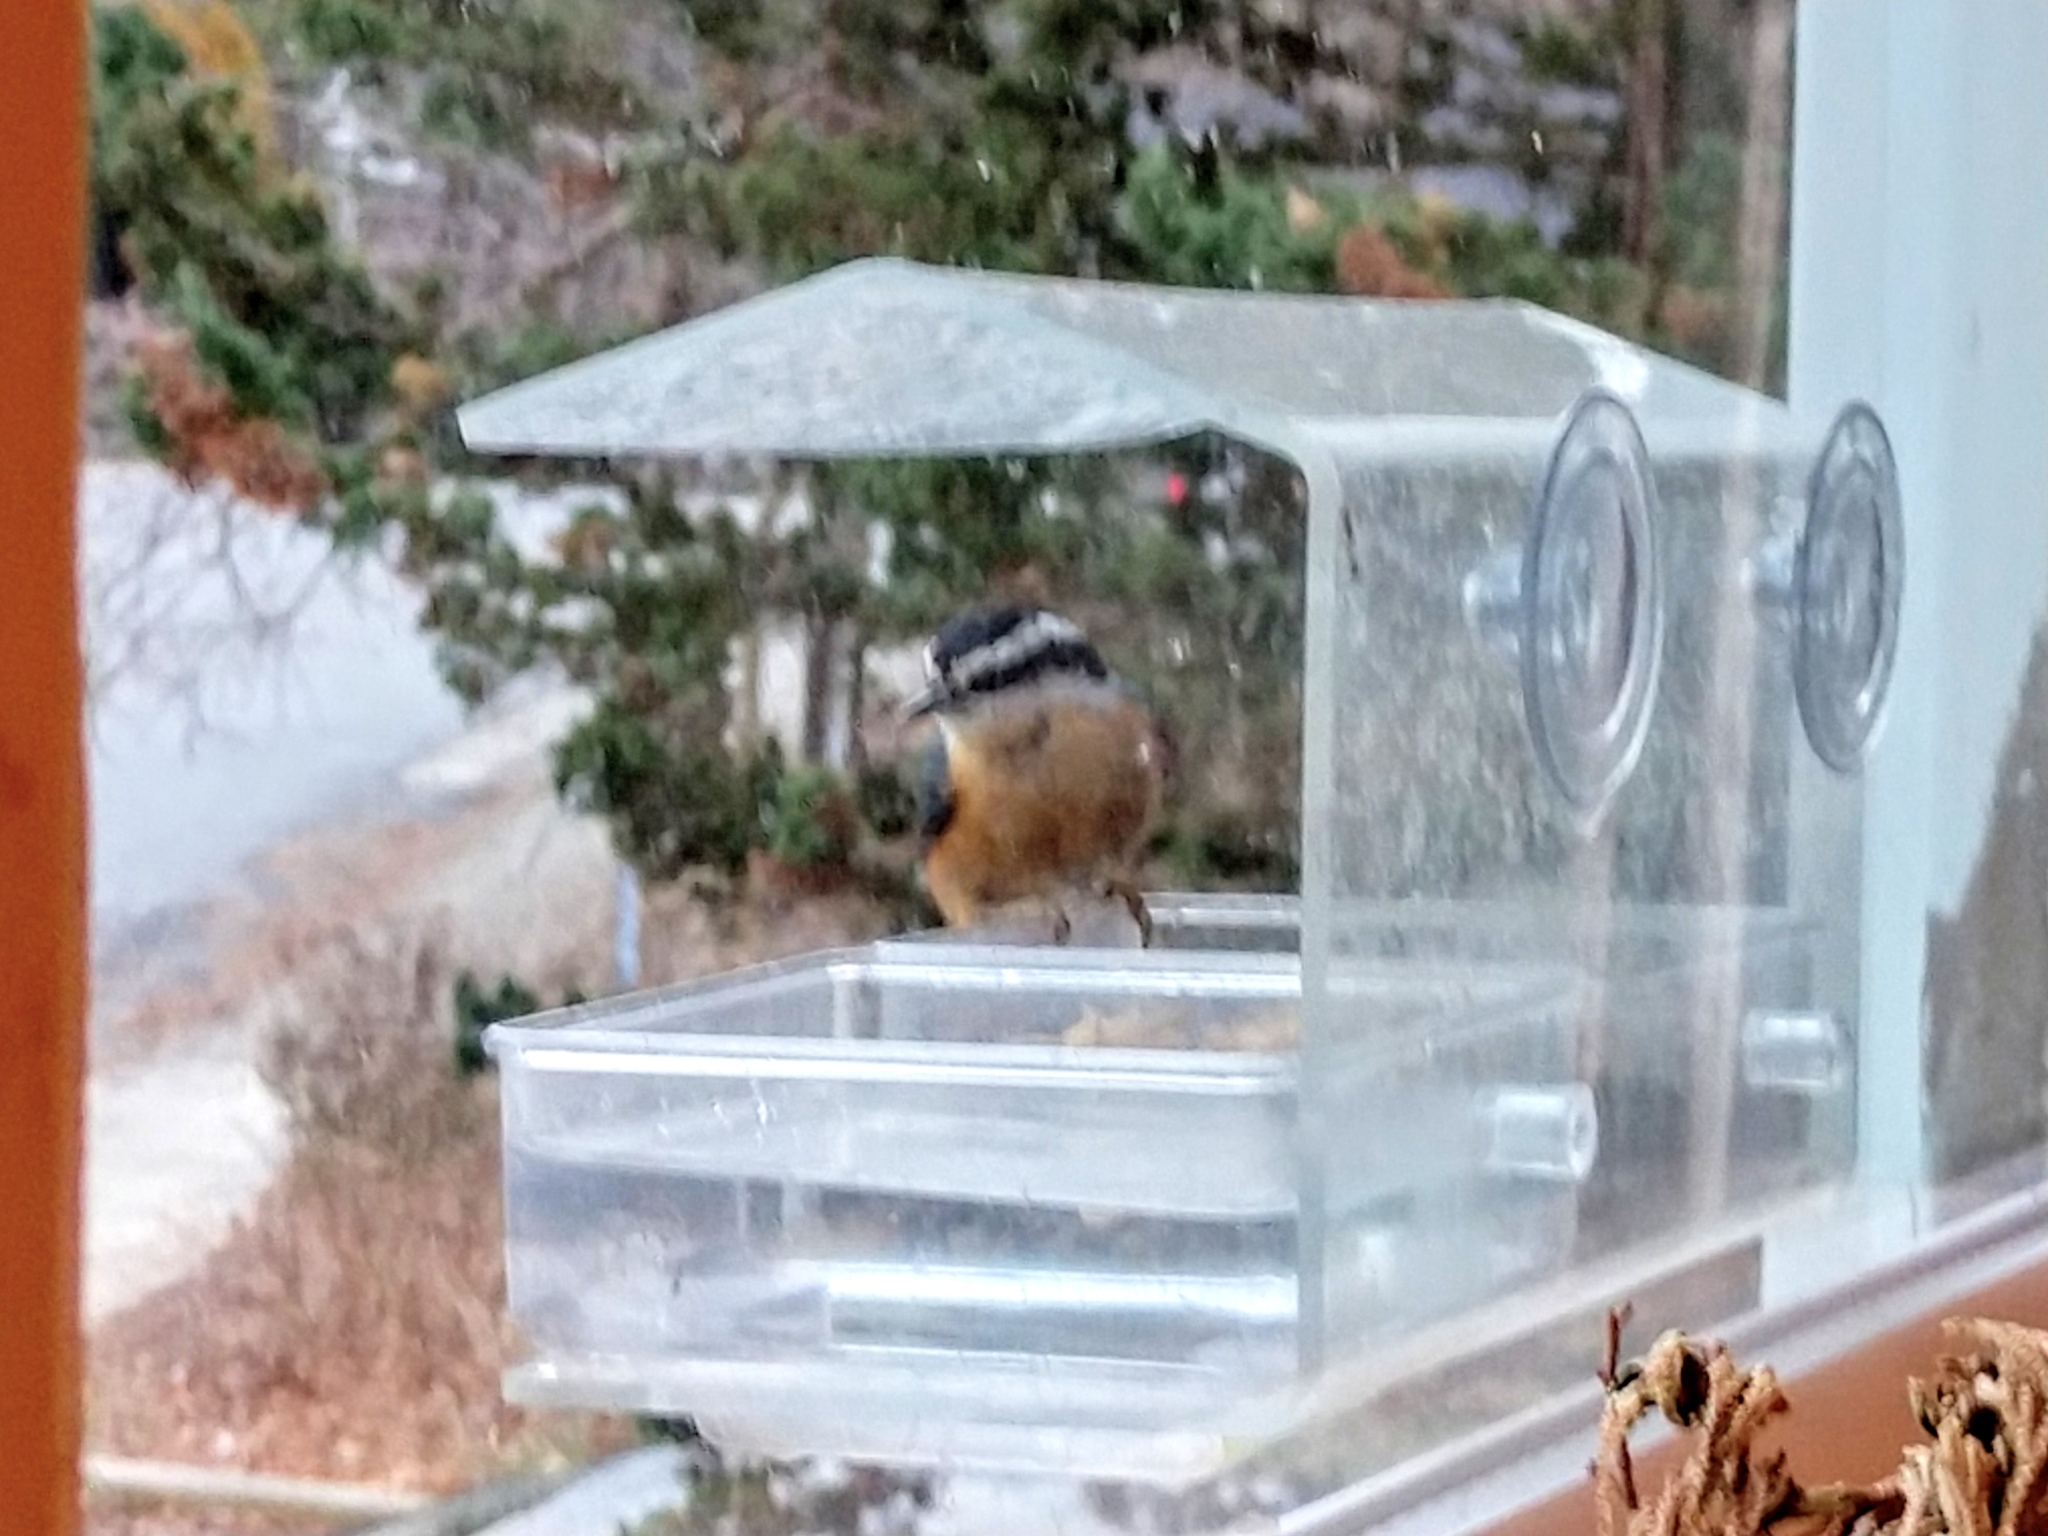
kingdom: Animalia
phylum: Chordata
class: Aves
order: Passeriformes
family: Sittidae
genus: Sitta
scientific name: Sitta canadensis
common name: Red-breasted nuthatch
